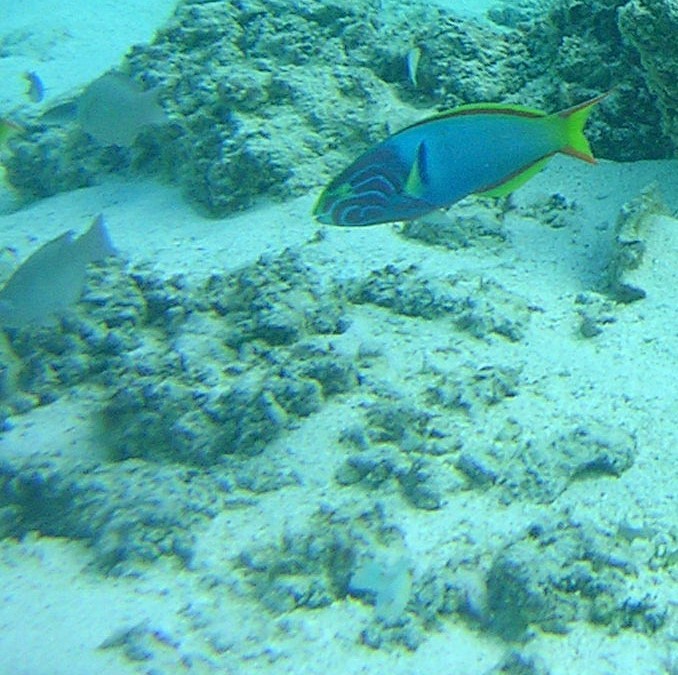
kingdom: Animalia
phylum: Chordata
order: Perciformes
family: Labridae
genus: Thalassoma
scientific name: Thalassoma lutescens
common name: Green moon wrasse
